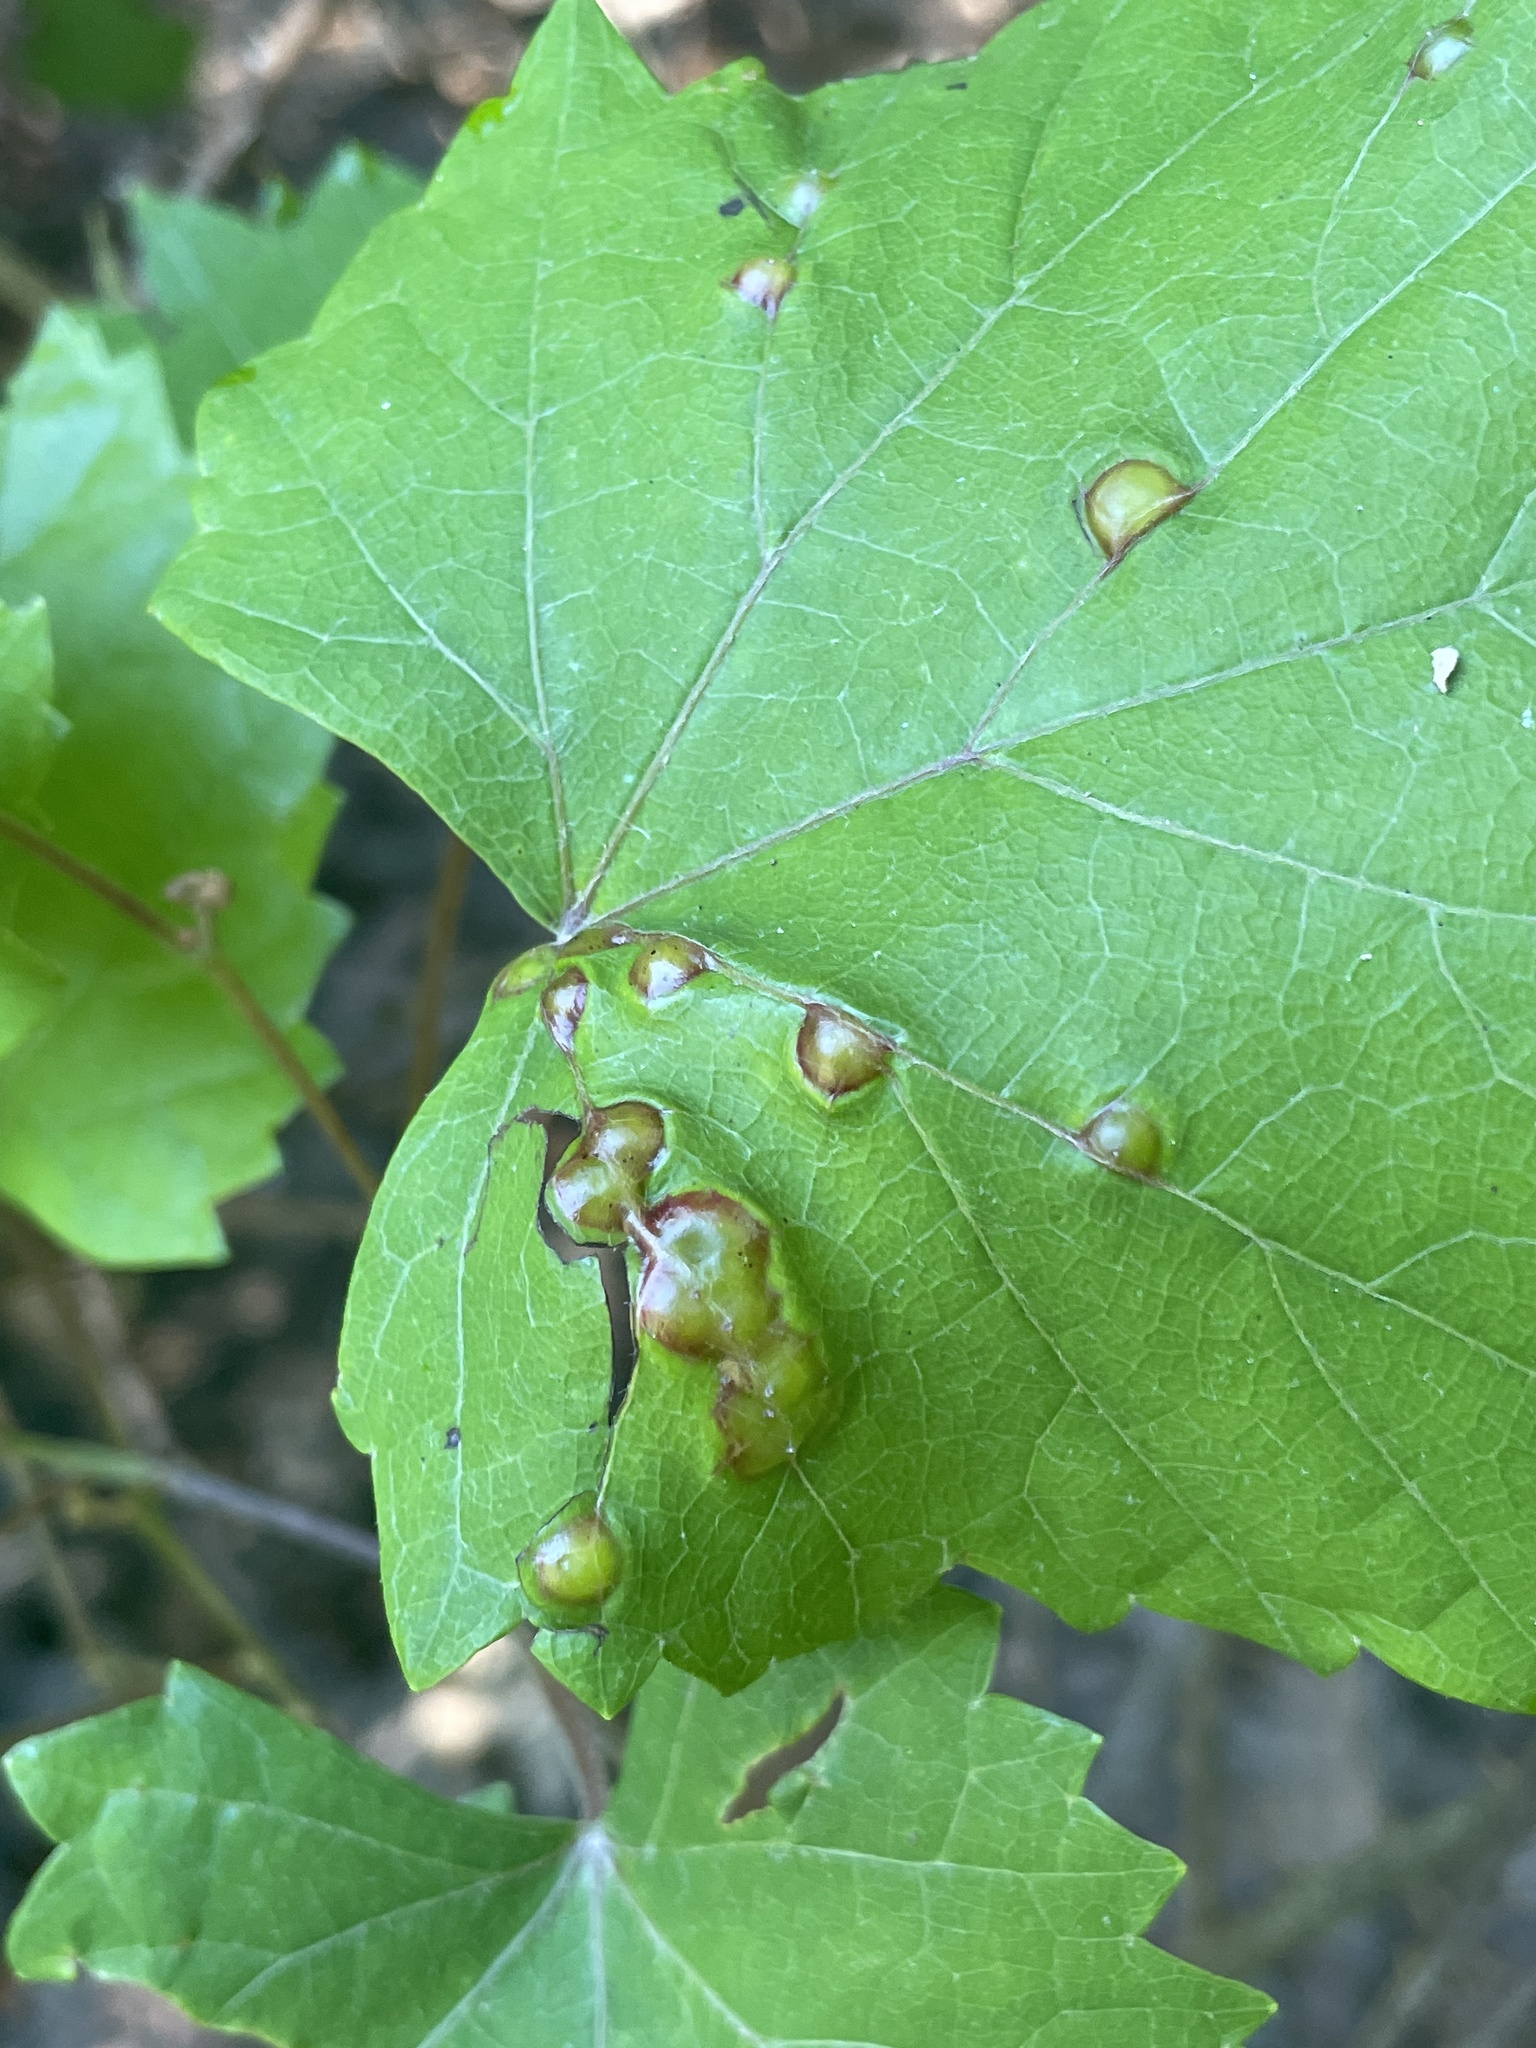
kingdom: Animalia
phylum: Arthropoda
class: Insecta
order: Diptera
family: Cecidomyiidae
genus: Vitisiella
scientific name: Vitisiella brevicauda
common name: Grape tumid gallmaker midge
